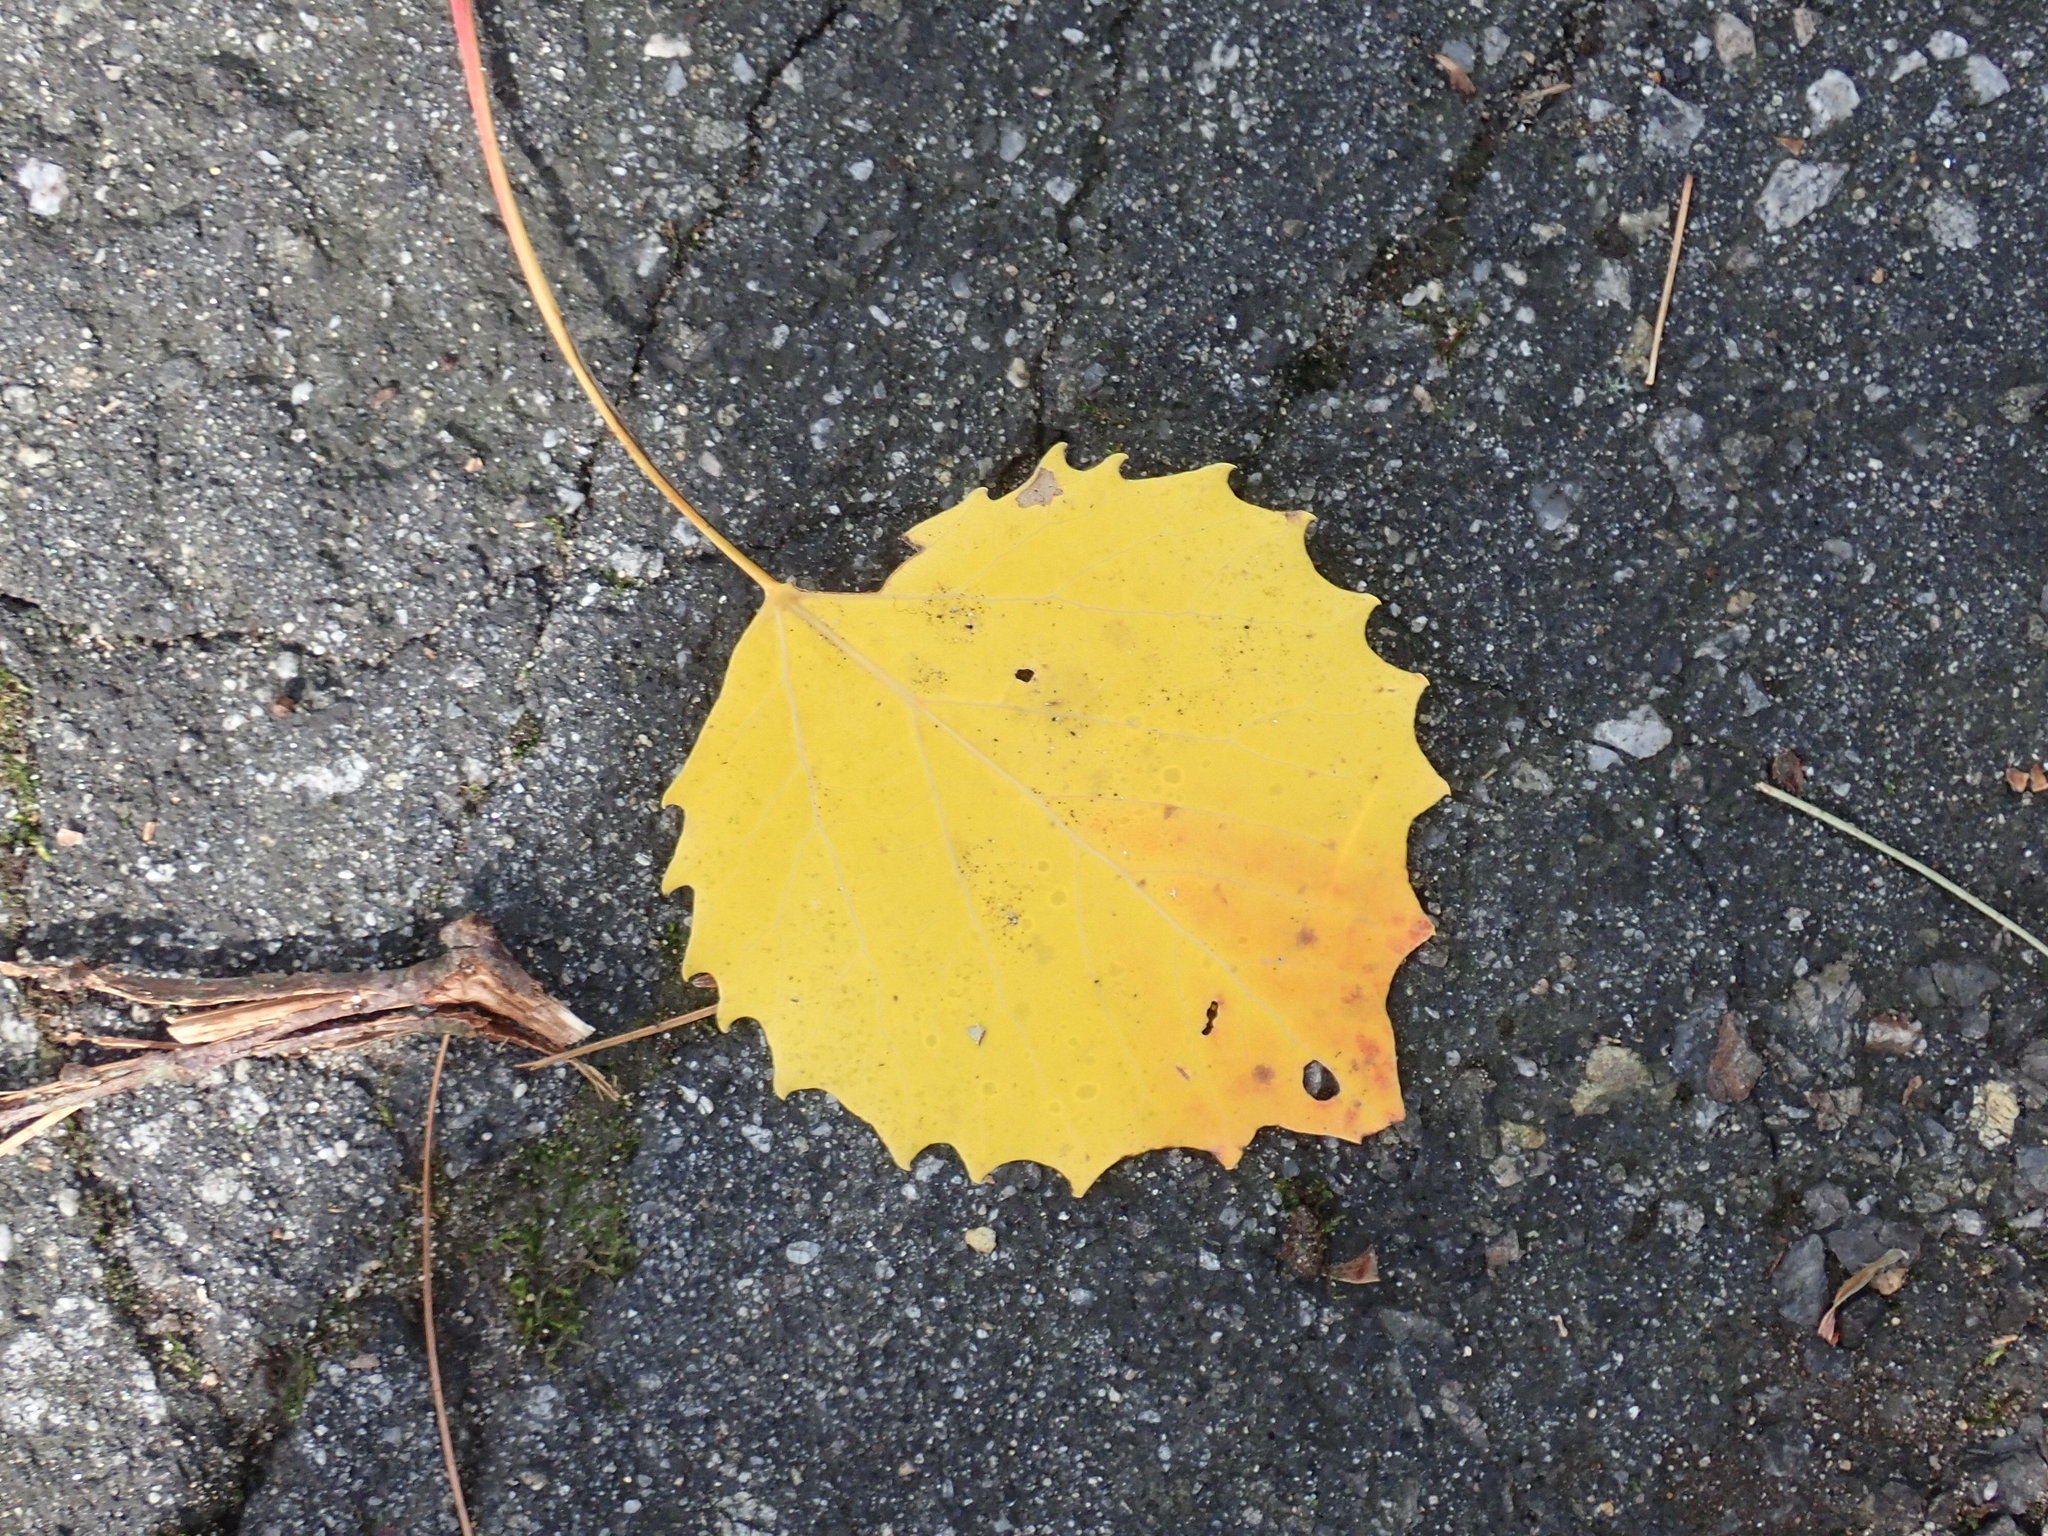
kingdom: Plantae
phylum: Tracheophyta
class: Magnoliopsida
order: Malpighiales
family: Salicaceae
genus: Populus
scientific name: Populus grandidentata
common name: Bigtooth aspen
